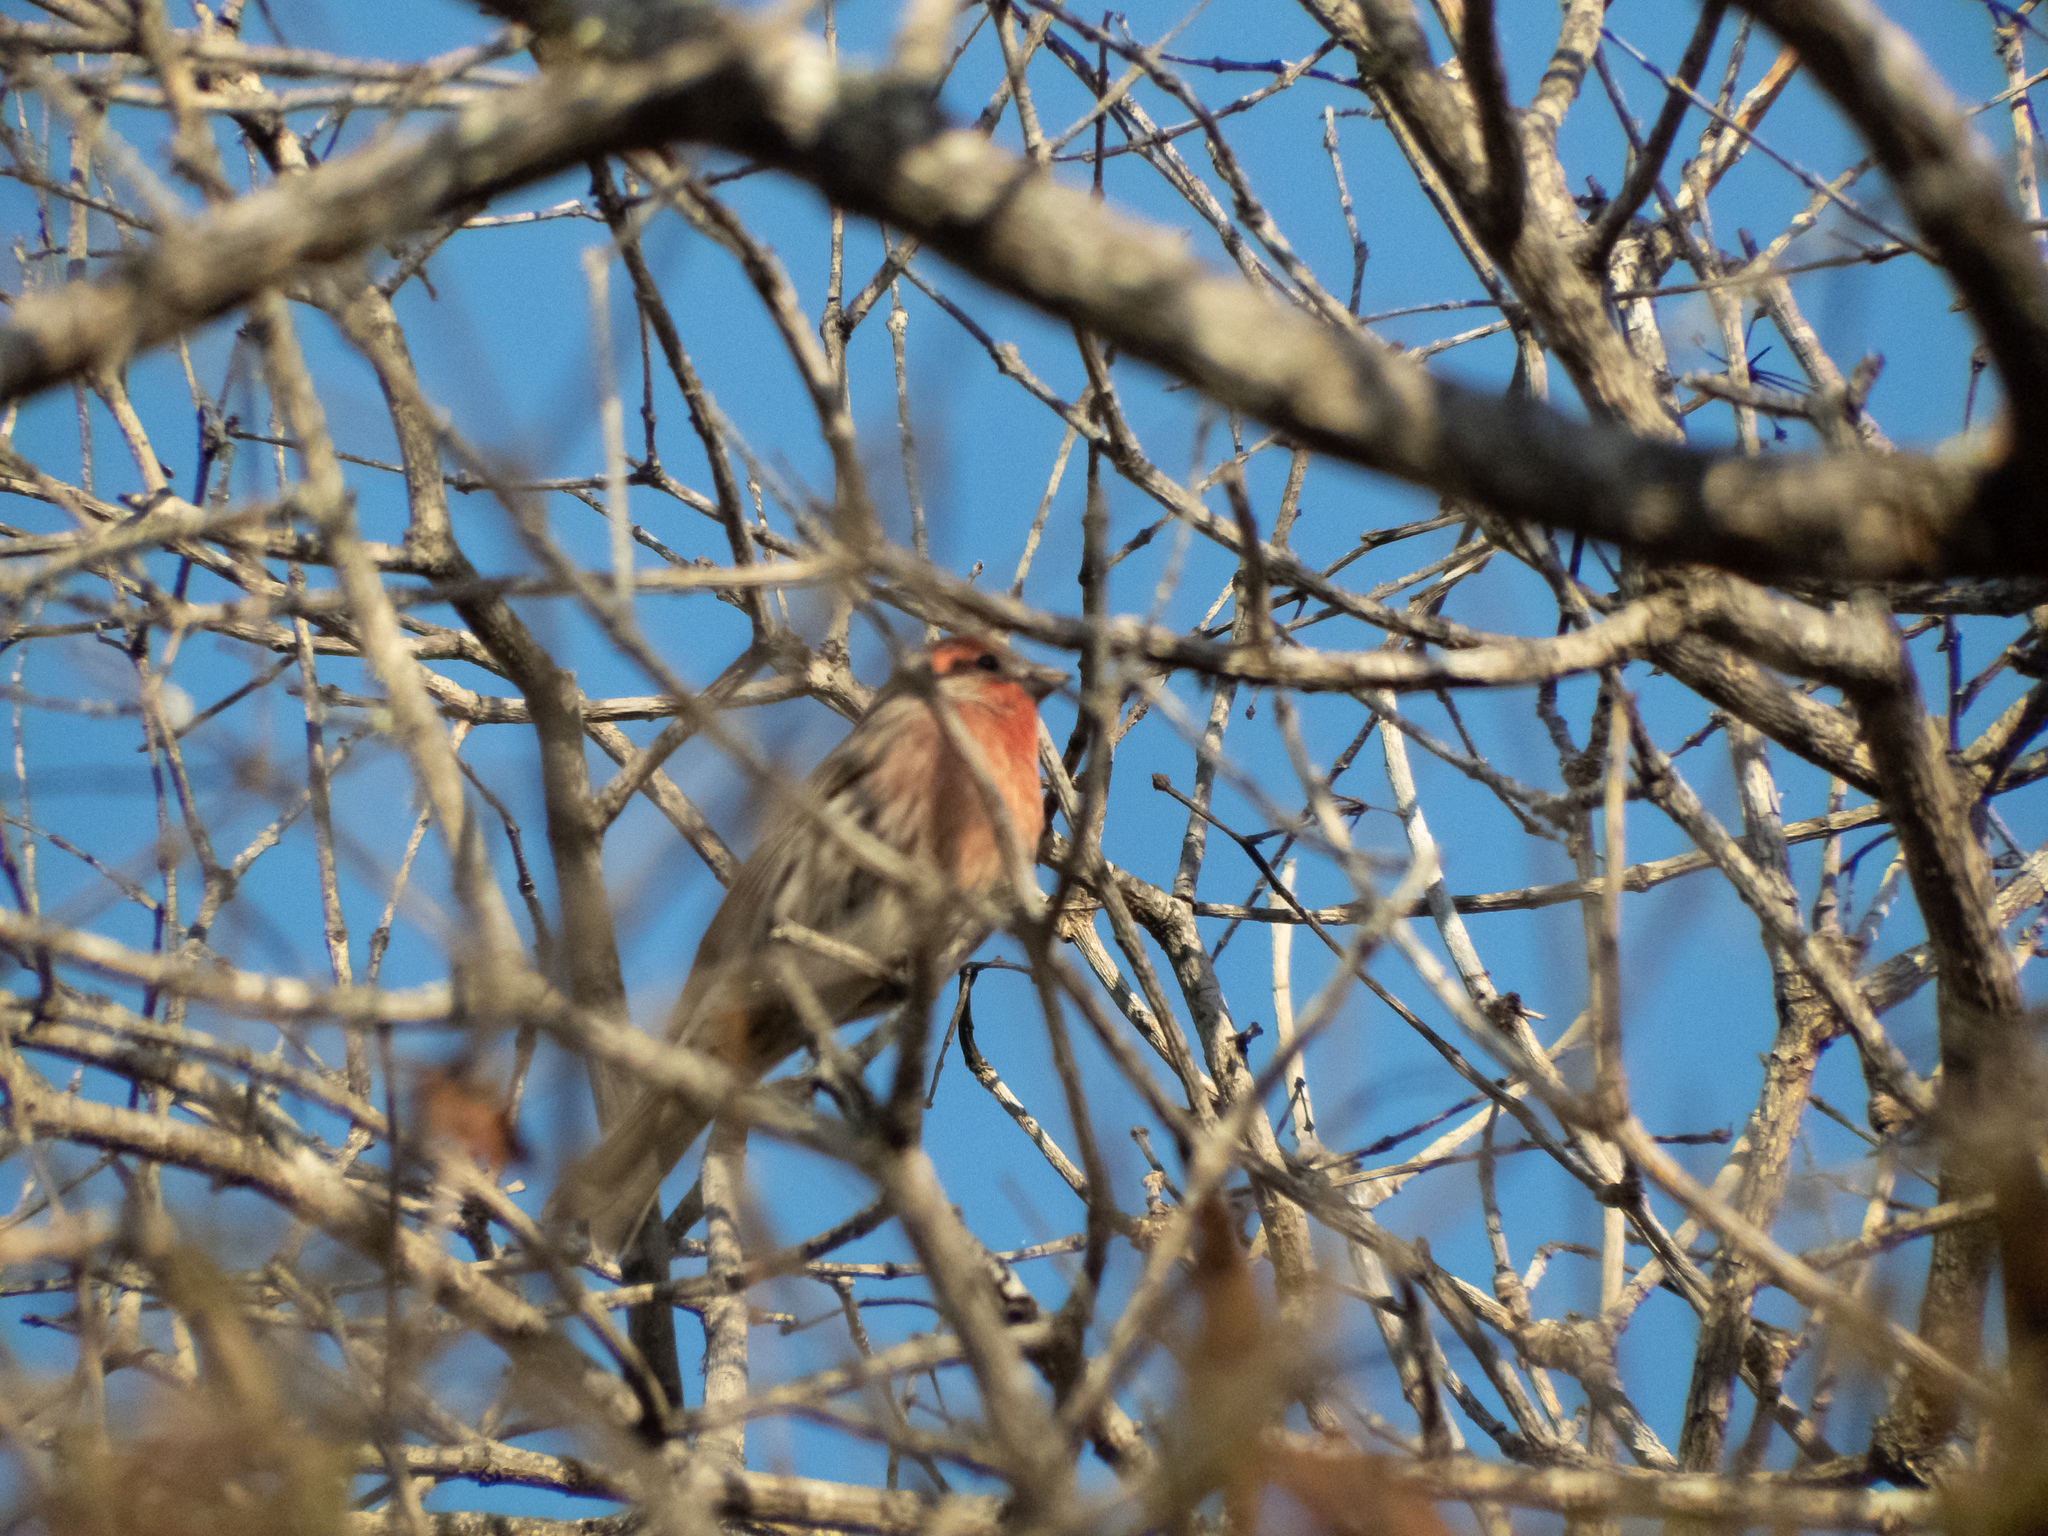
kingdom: Animalia
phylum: Chordata
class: Aves
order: Passeriformes
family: Fringillidae
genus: Haemorhous
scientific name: Haemorhous mexicanus
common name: House finch
